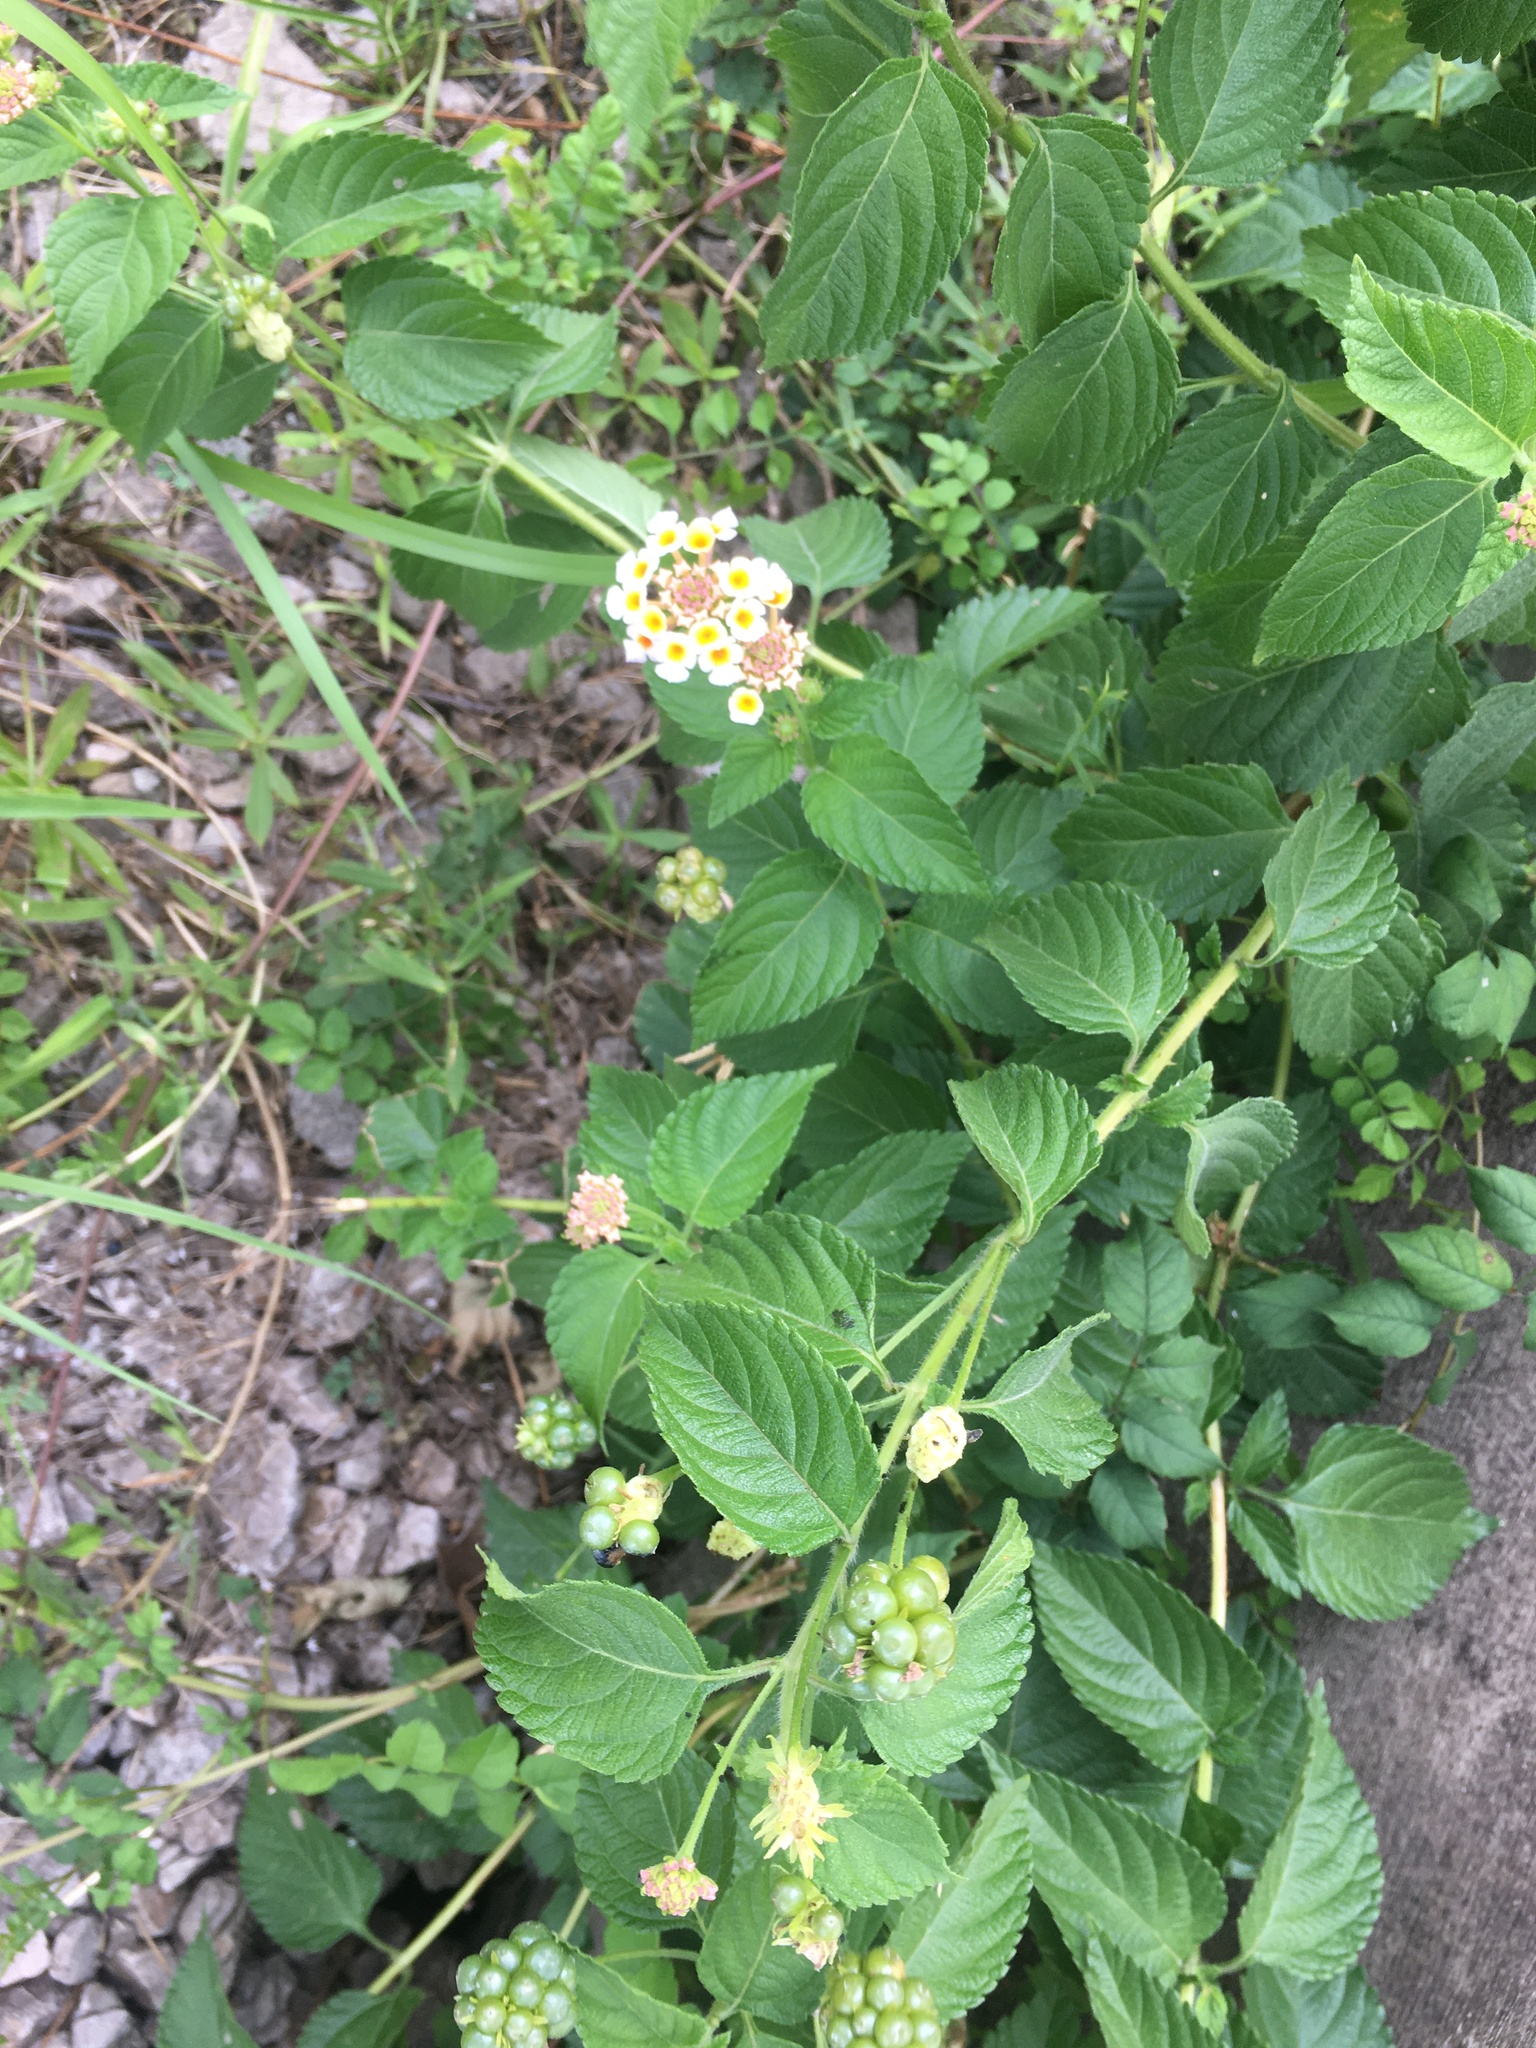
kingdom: Plantae
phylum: Tracheophyta
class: Magnoliopsida
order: Lamiales
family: Verbenaceae
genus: Lantana
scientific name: Lantana strigocamara
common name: Lantana
